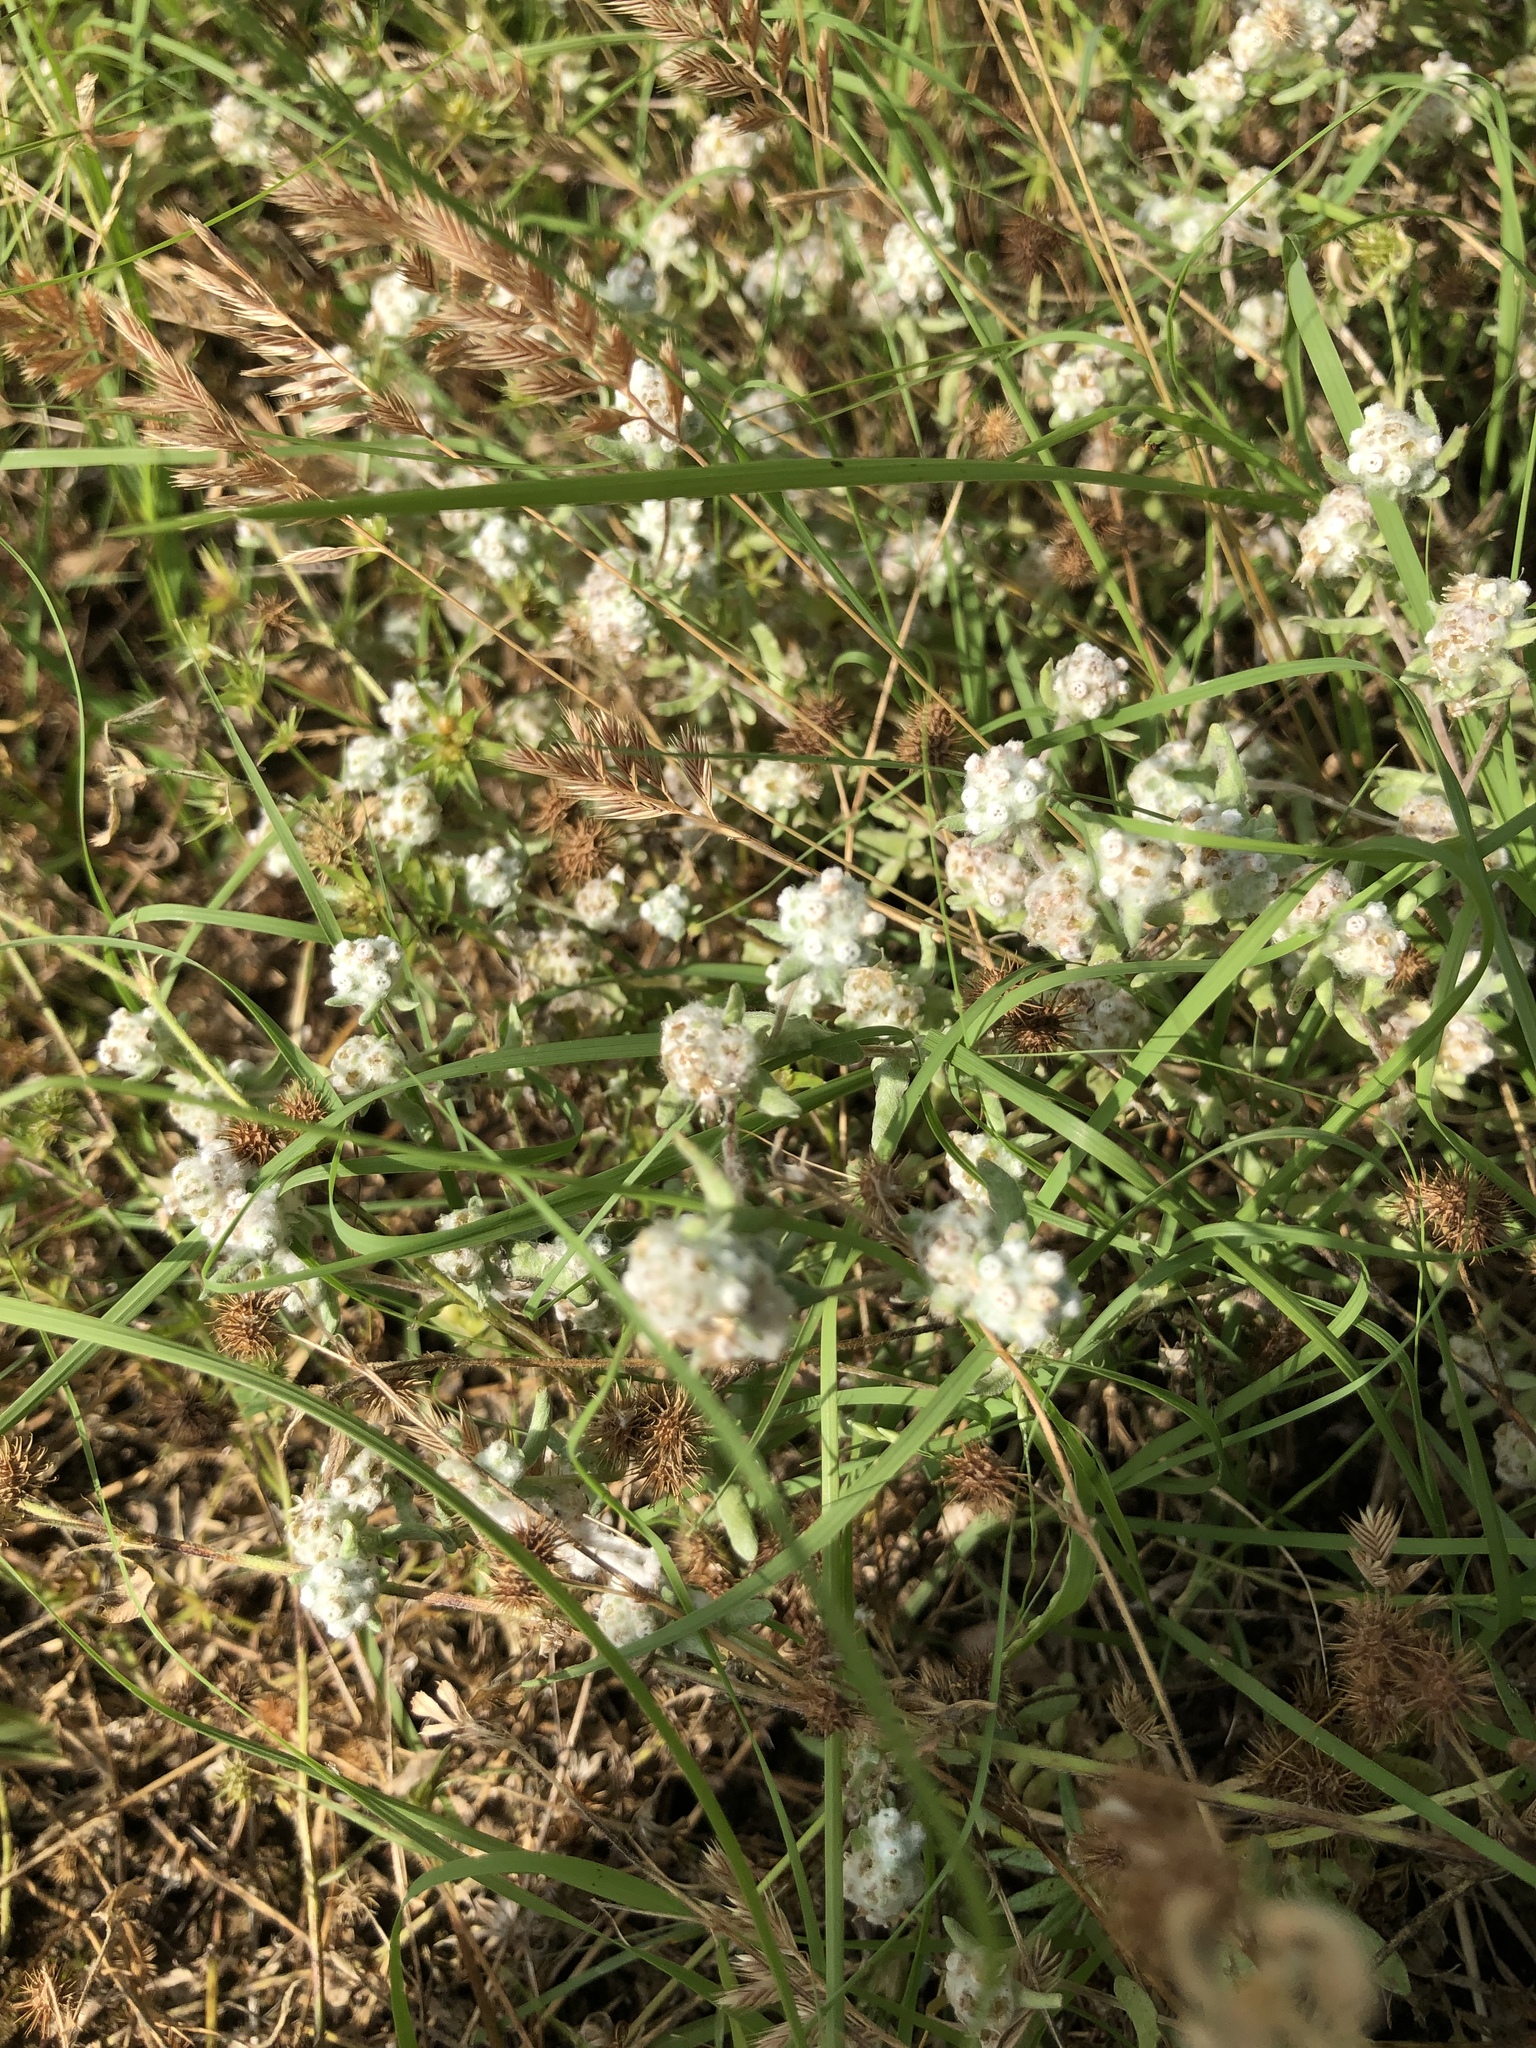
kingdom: Plantae
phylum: Tracheophyta
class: Magnoliopsida
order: Asterales
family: Asteraceae
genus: Diaperia
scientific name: Diaperia verna
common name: Many-stem rabbit-tobacco
